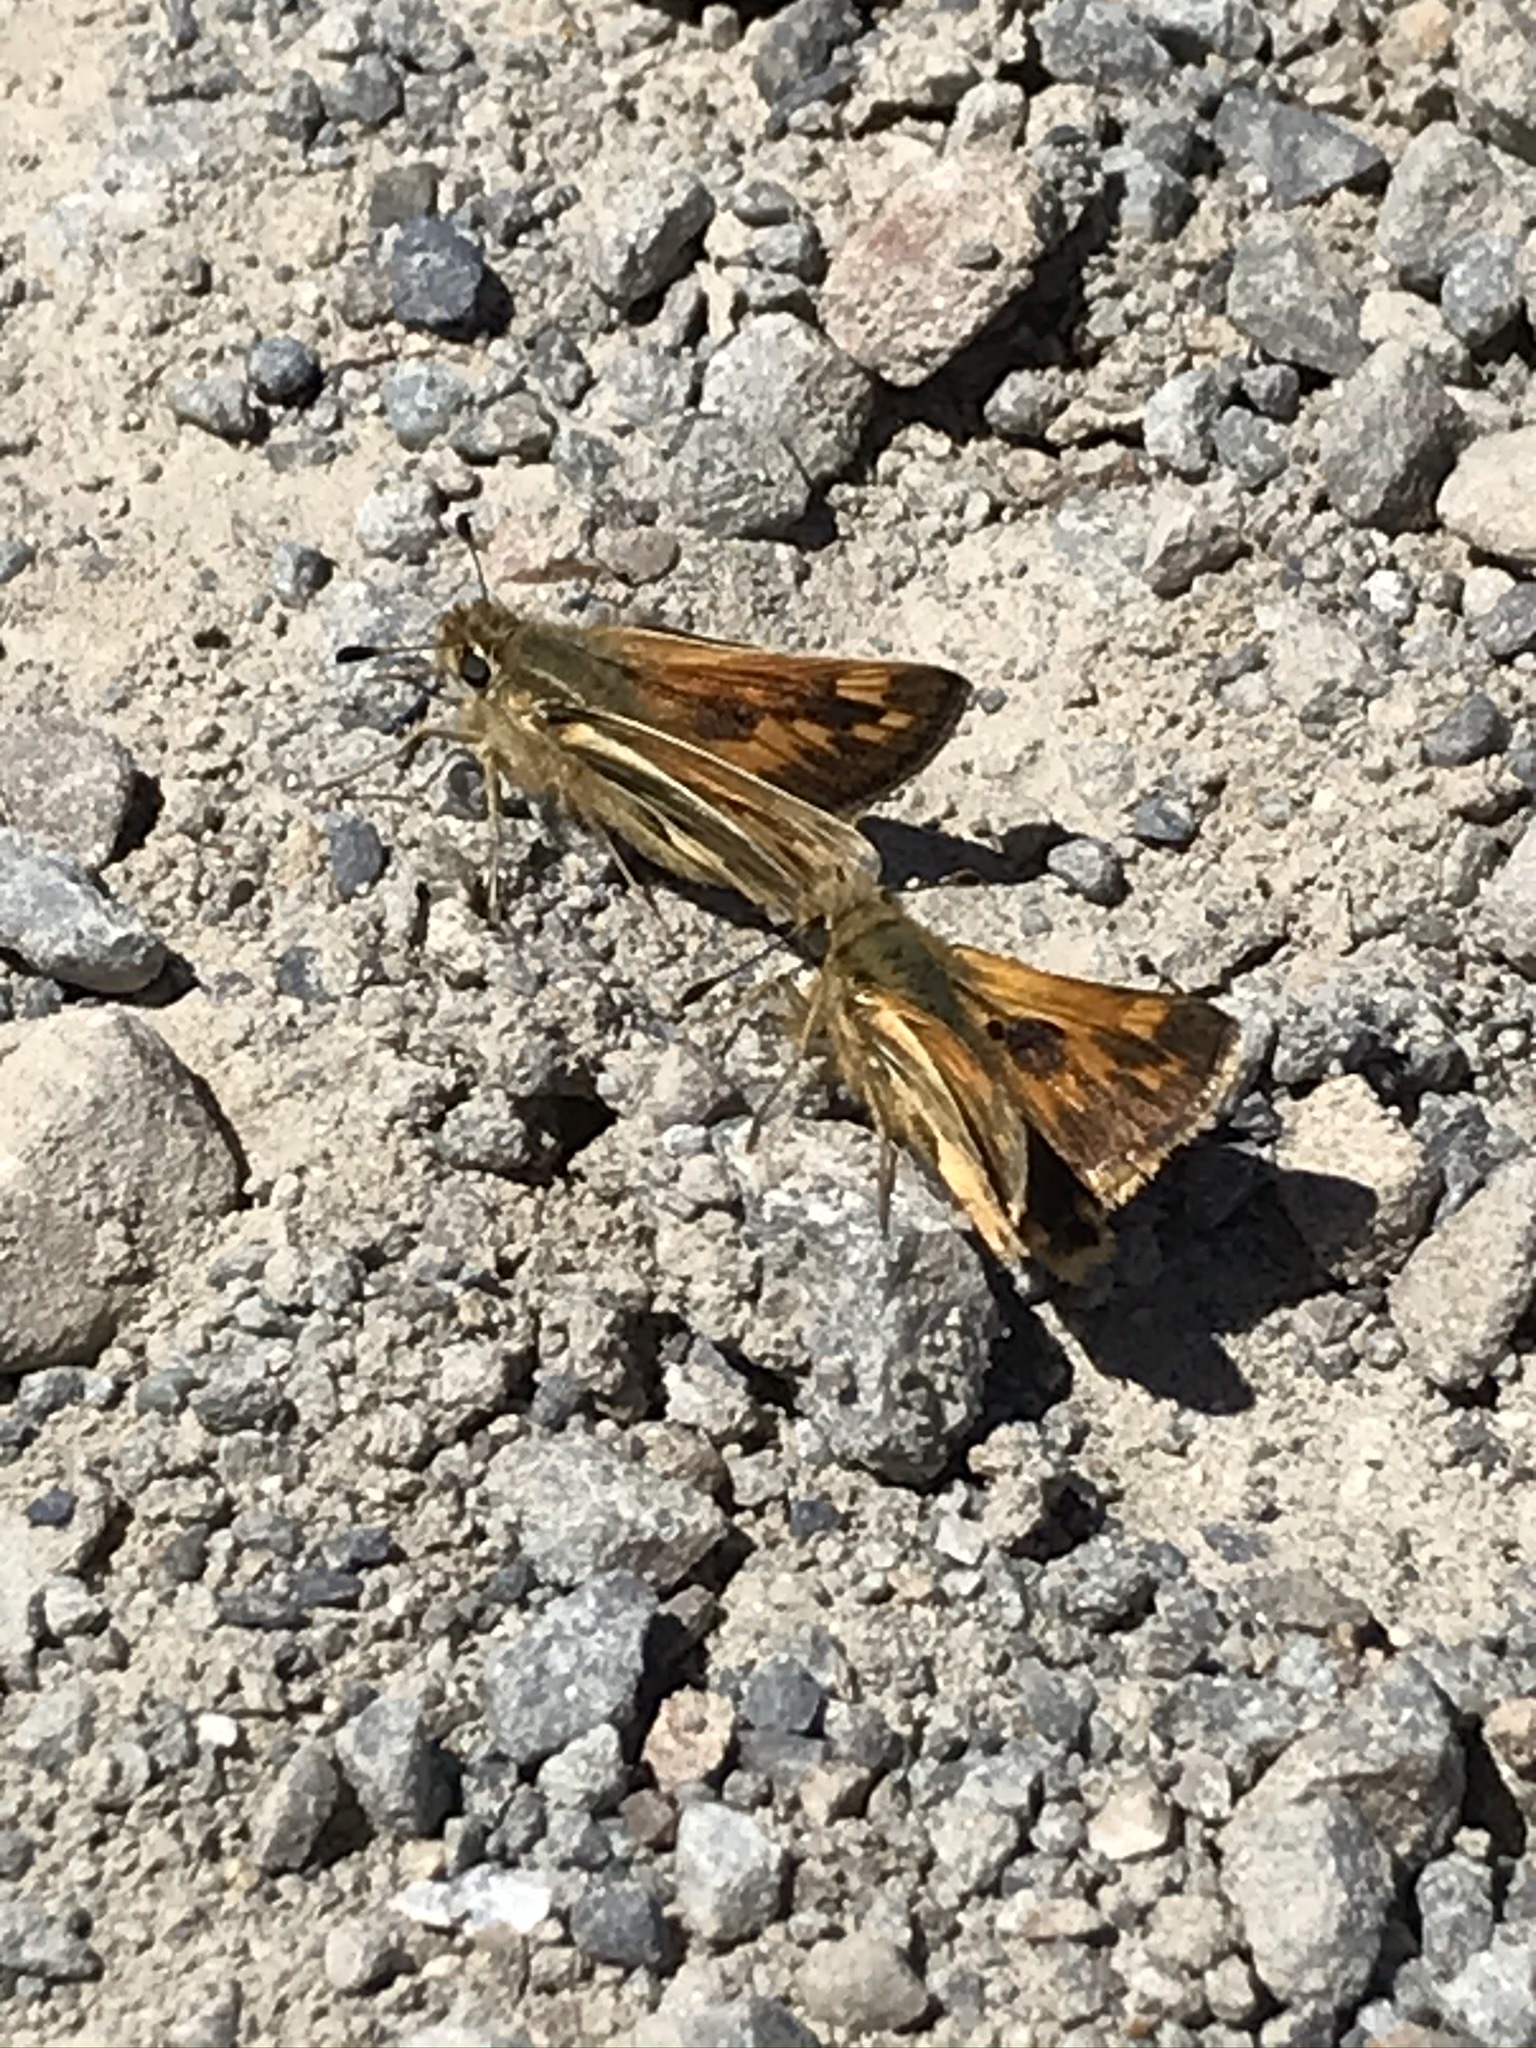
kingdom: Animalia
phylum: Arthropoda
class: Insecta
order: Lepidoptera
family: Hesperiidae
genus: Polites
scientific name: Polites sabuleti
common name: Sandhill skipper
